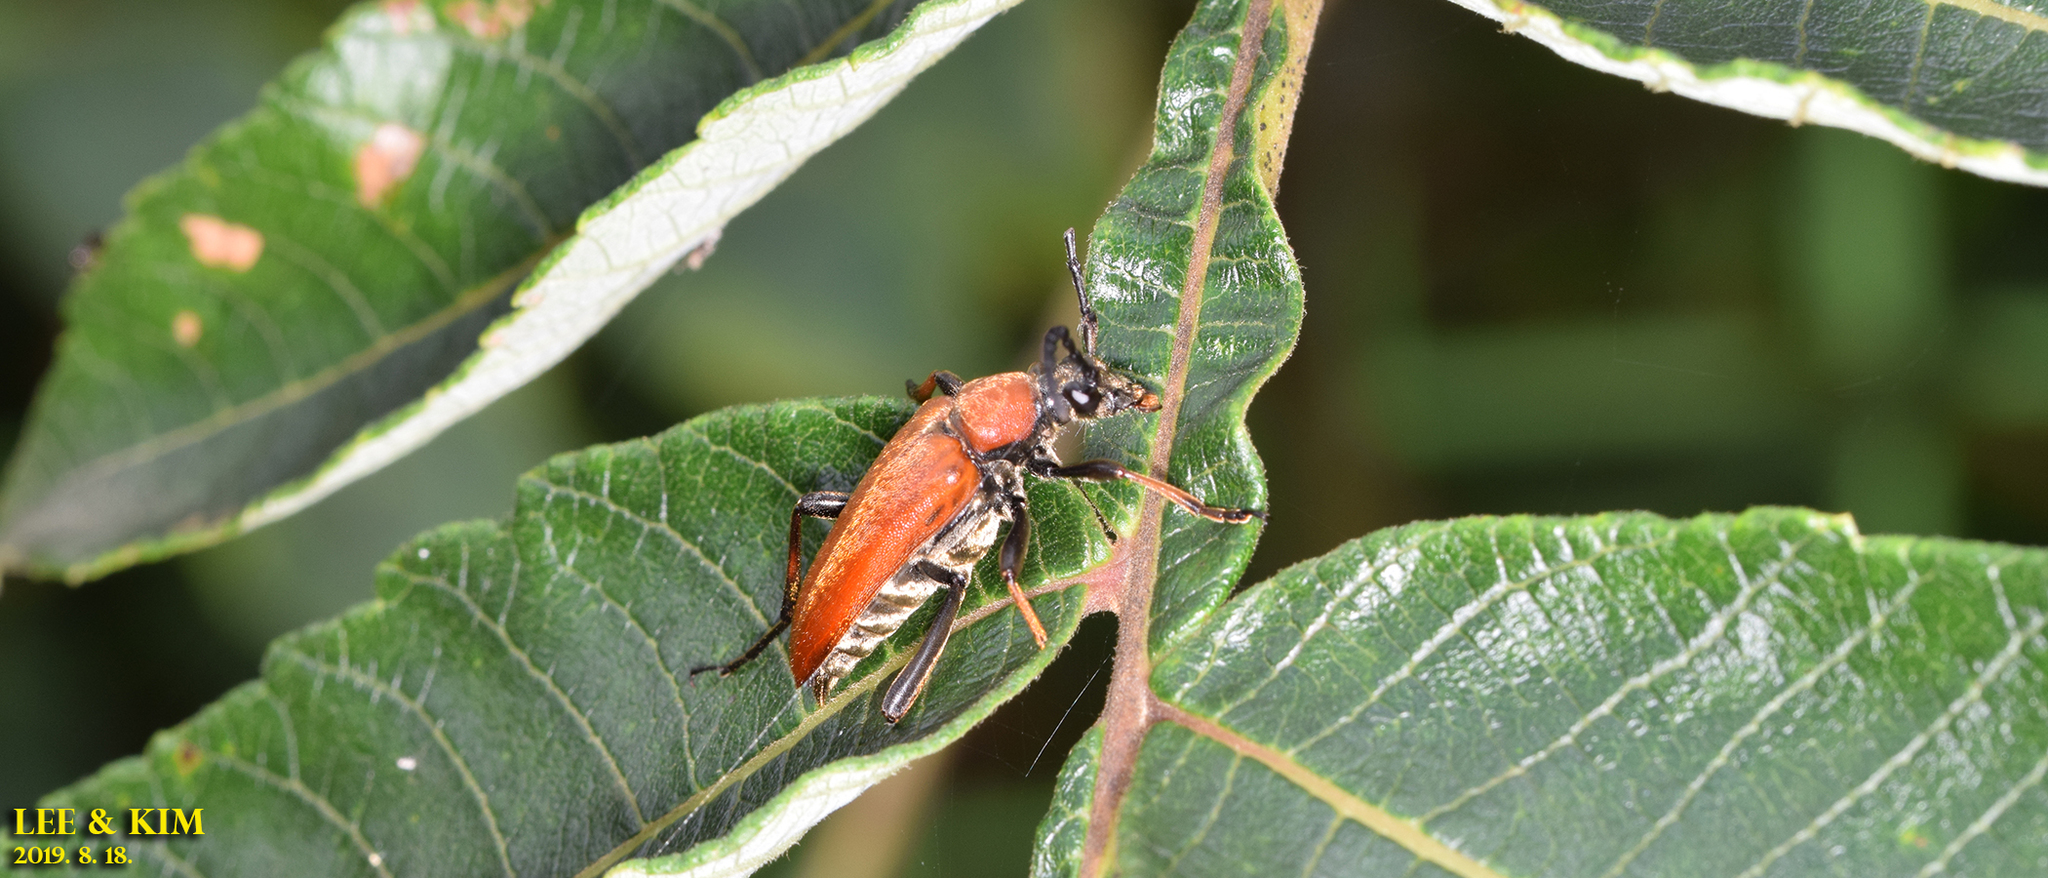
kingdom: Animalia
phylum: Arthropoda
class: Insecta
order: Coleoptera
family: Cerambycidae
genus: Stictoleptura
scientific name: Stictoleptura dichroa
